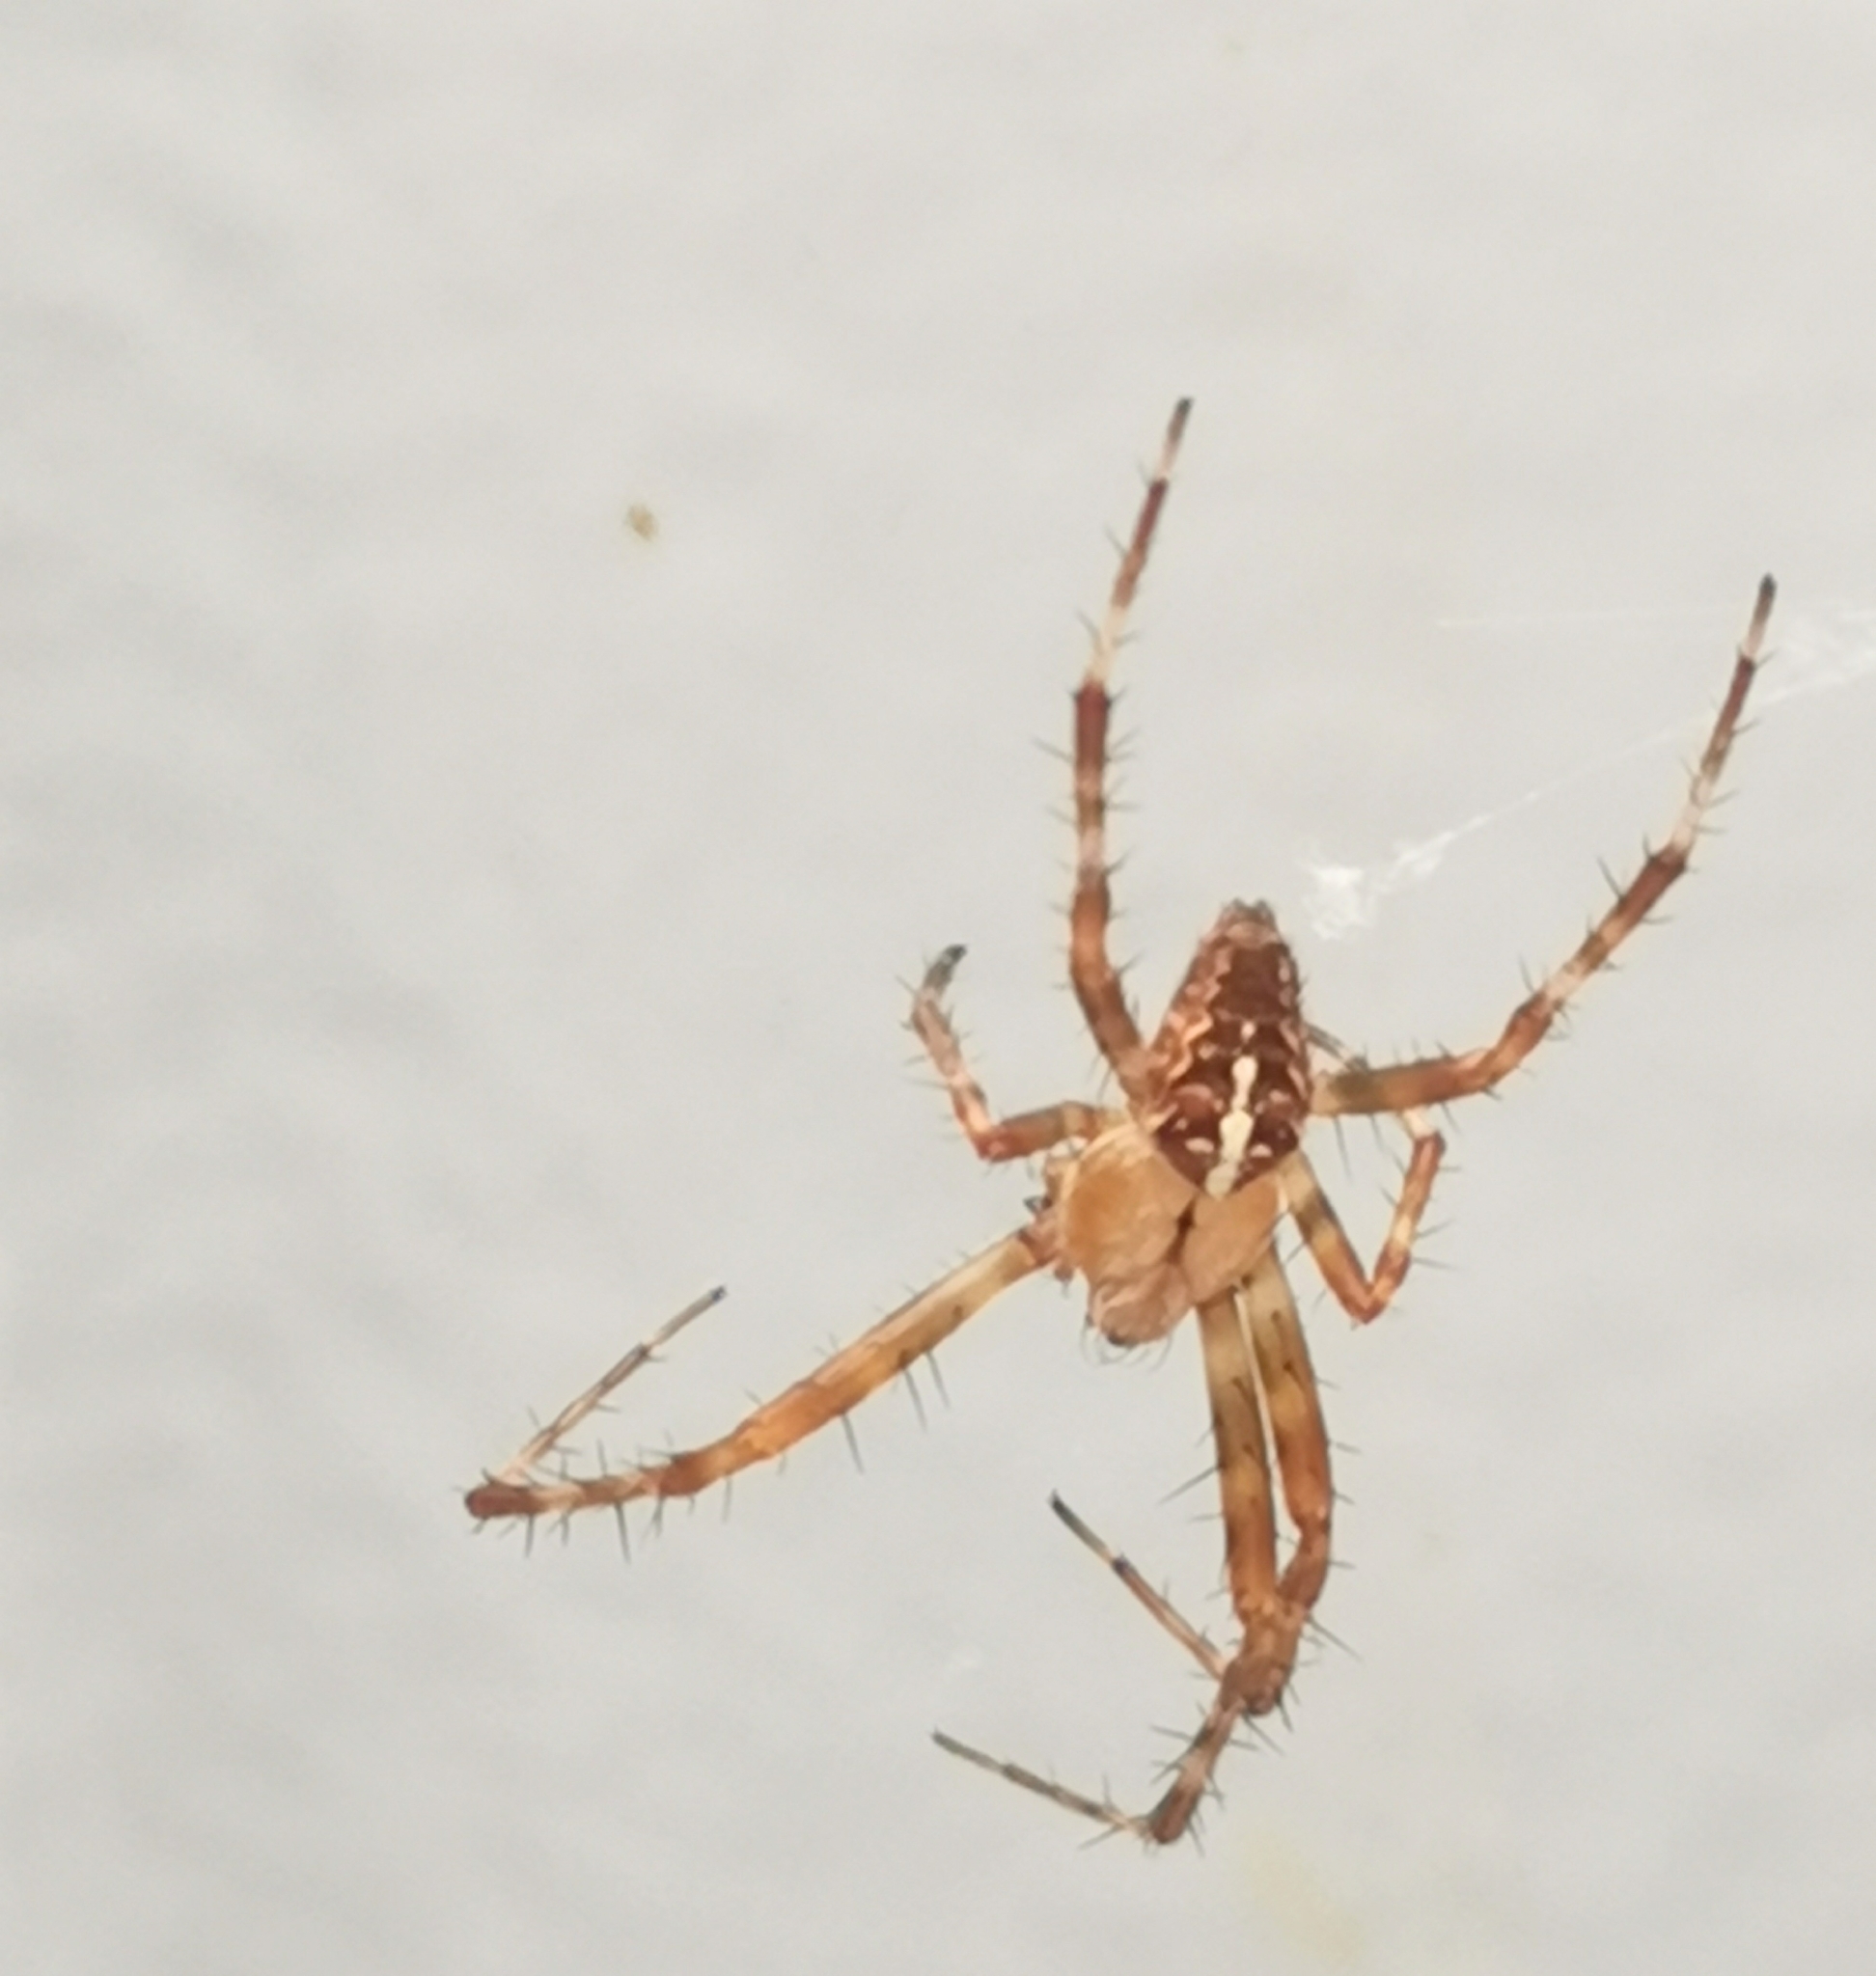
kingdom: Animalia
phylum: Arthropoda
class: Arachnida
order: Araneae
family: Araneidae
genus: Araneus
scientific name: Araneus diadematus
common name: Cross orbweaver
